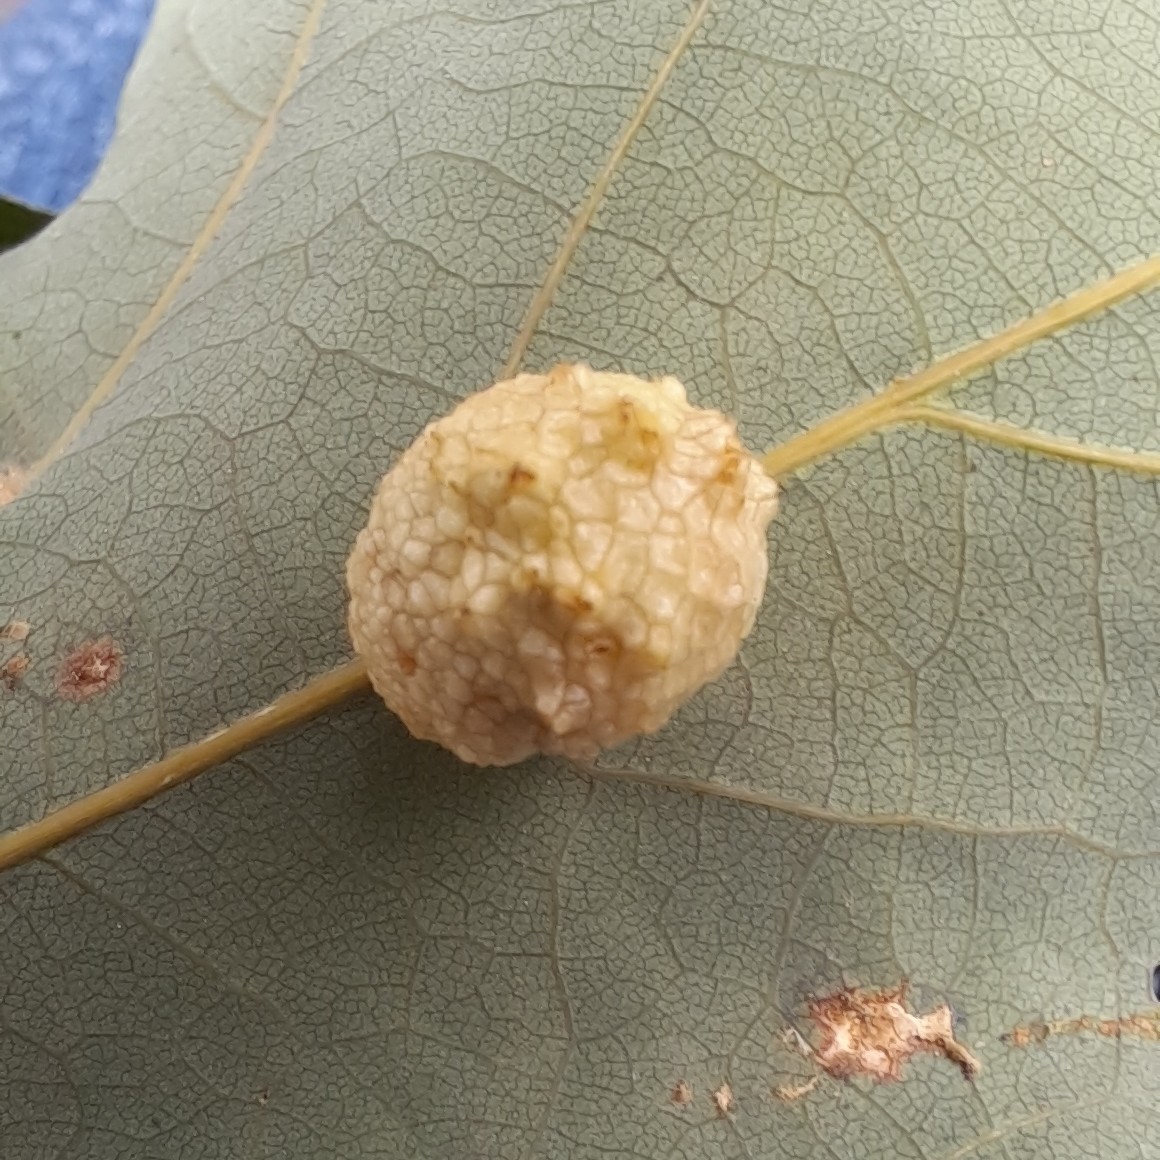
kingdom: Animalia
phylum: Arthropoda
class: Insecta
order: Hymenoptera
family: Cynipidae
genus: Acraspis
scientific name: Acraspis
